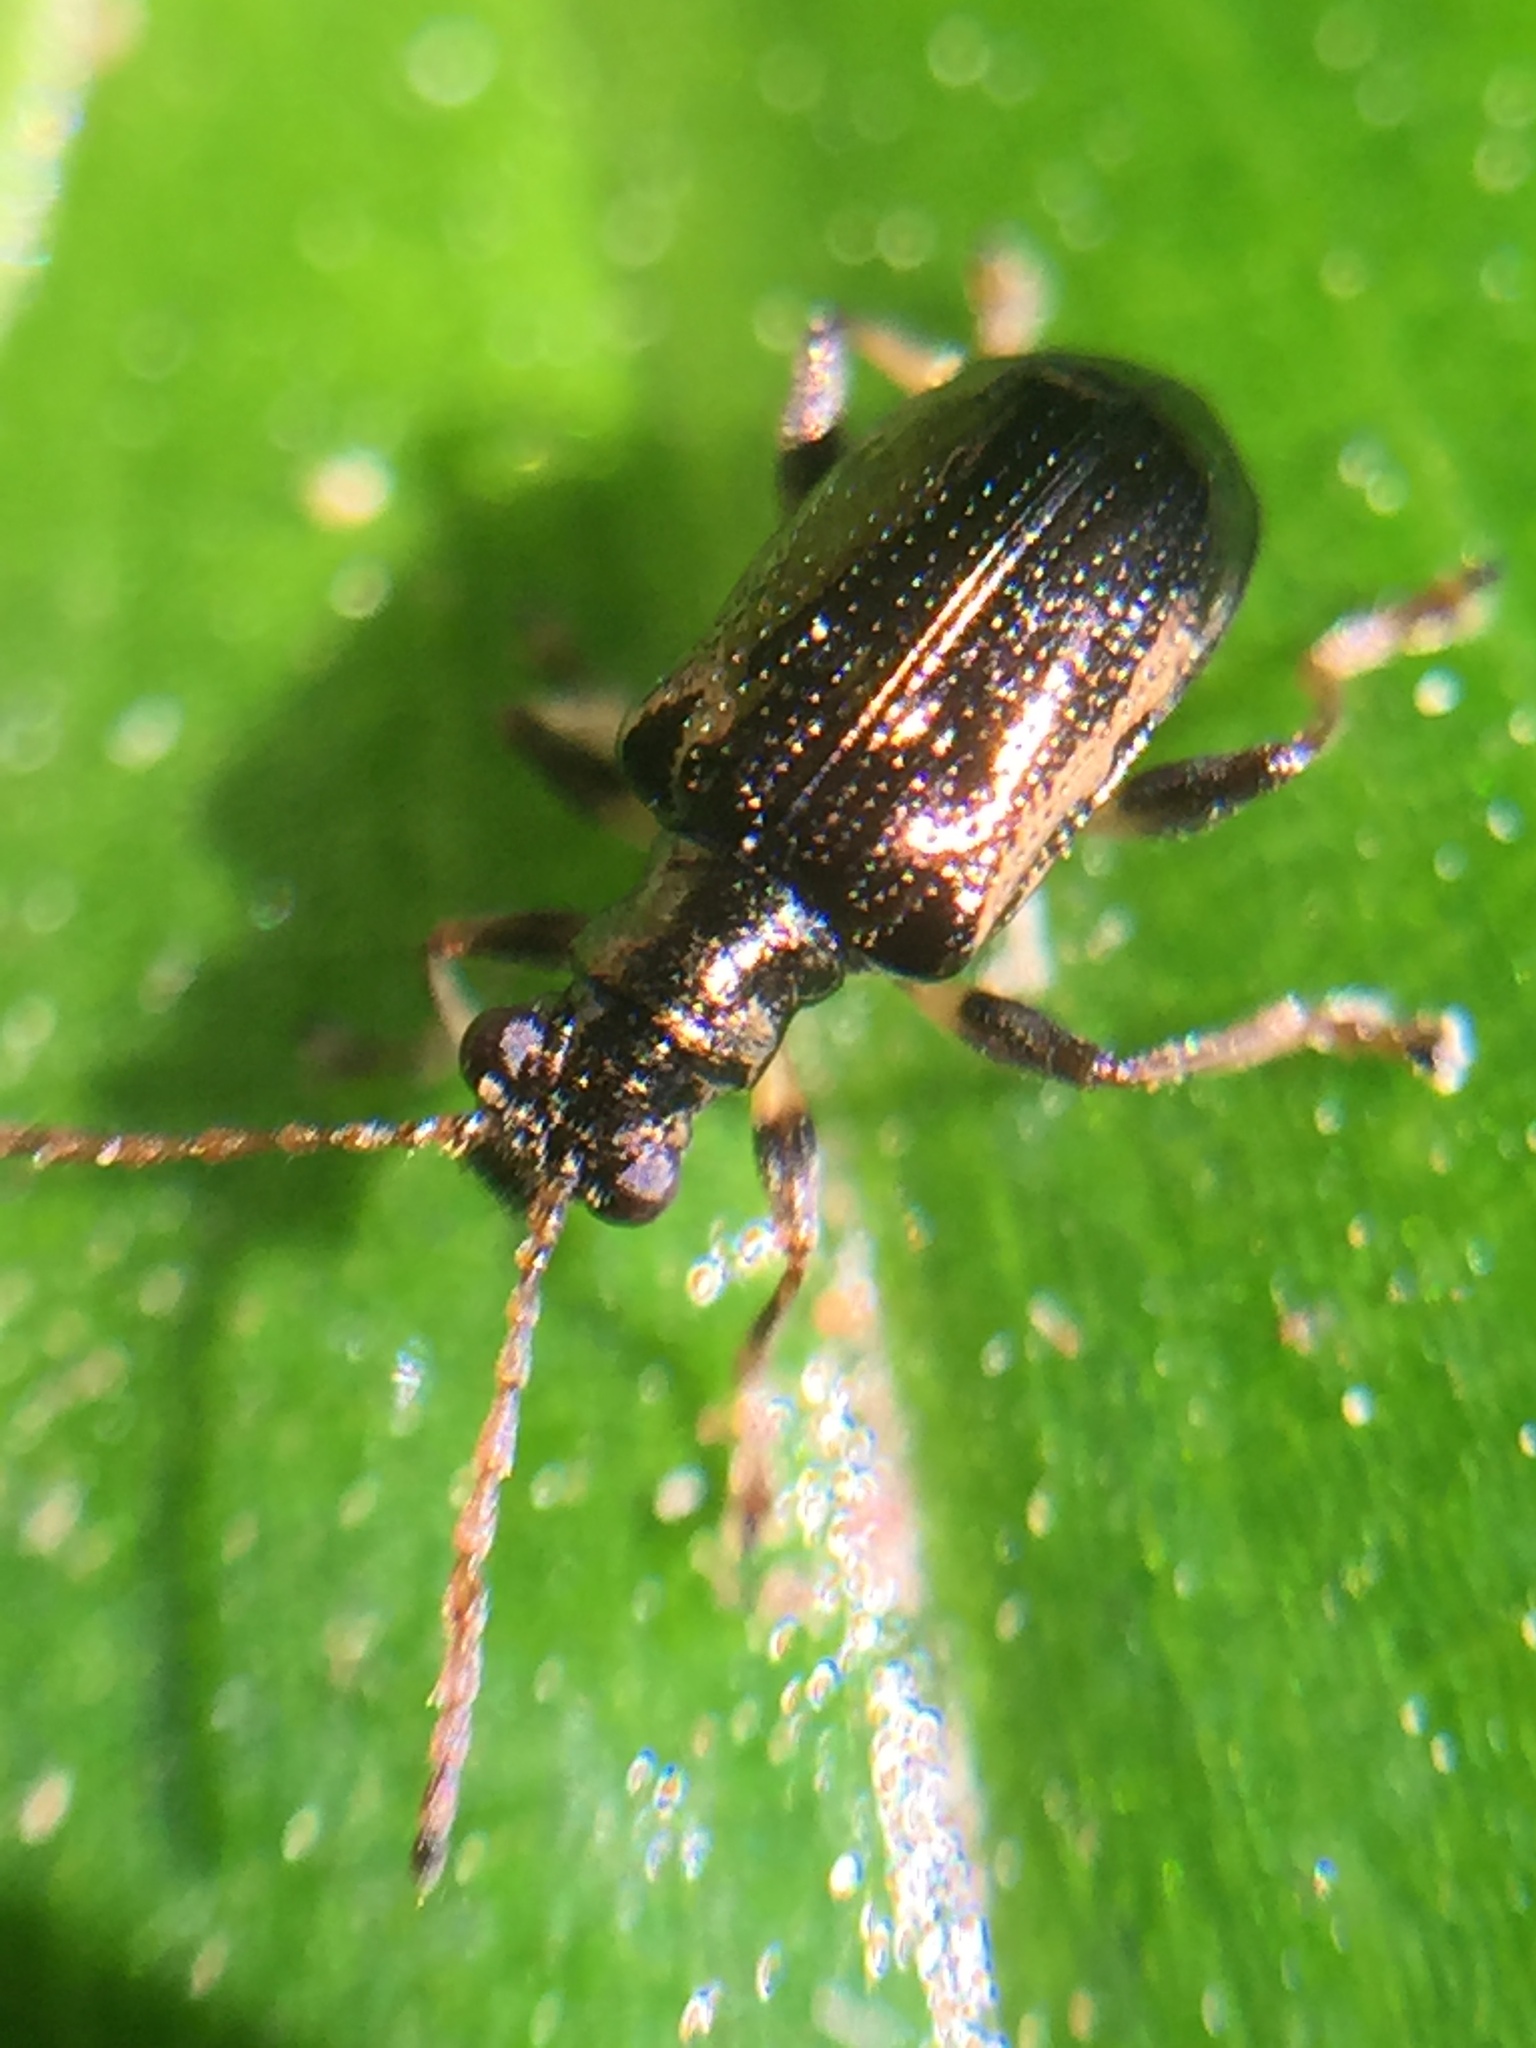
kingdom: Animalia
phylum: Arthropoda
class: Insecta
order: Coleoptera
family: Chrysomelidae
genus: Neolema
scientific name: Neolema ogloblini
